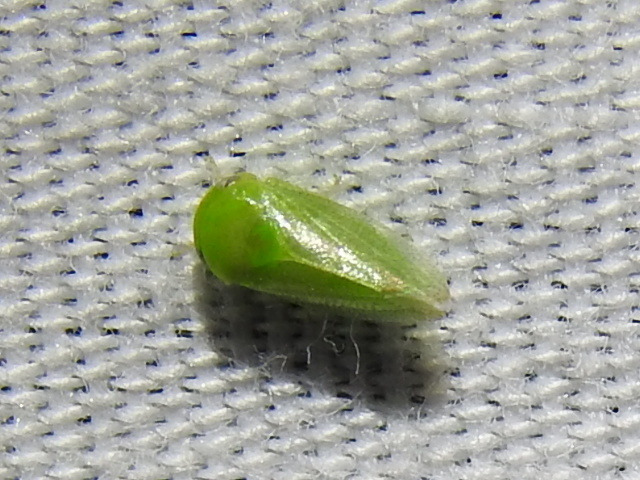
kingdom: Animalia
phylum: Arthropoda
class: Insecta
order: Hemiptera
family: Cicadellidae
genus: Penestragania
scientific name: Penestragania robusta
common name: Robust leafhopper
